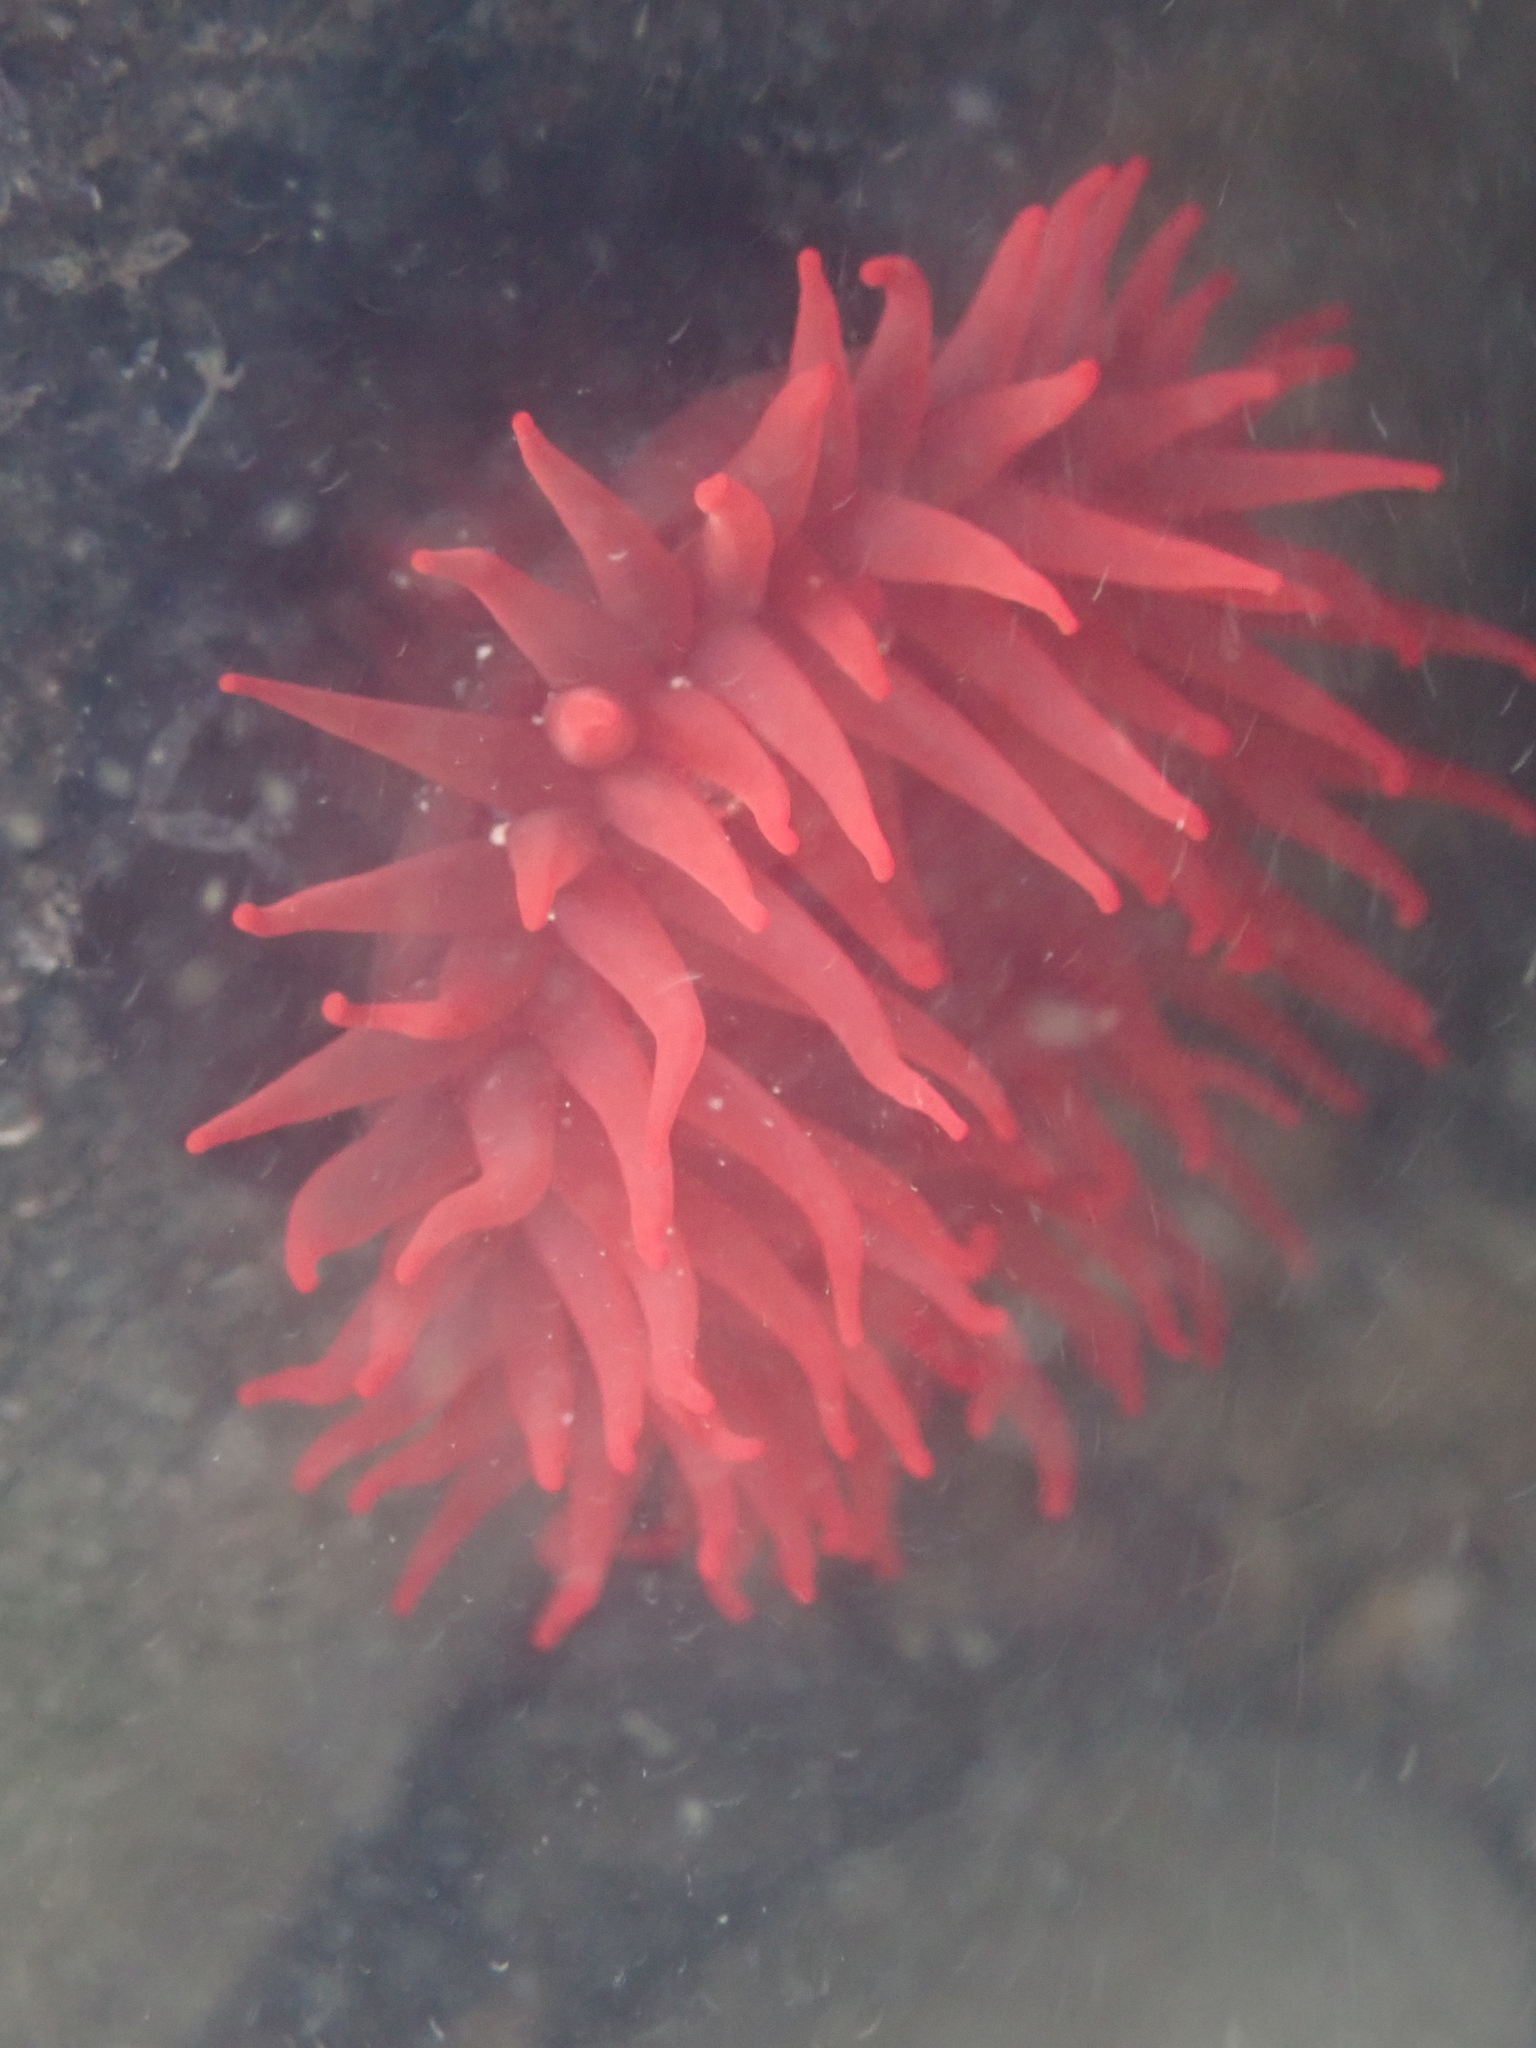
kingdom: Animalia
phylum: Cnidaria
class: Anthozoa
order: Actiniaria
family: Actiniidae
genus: Actinia
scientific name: Actinia tenebrosa
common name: Waratah anemone
